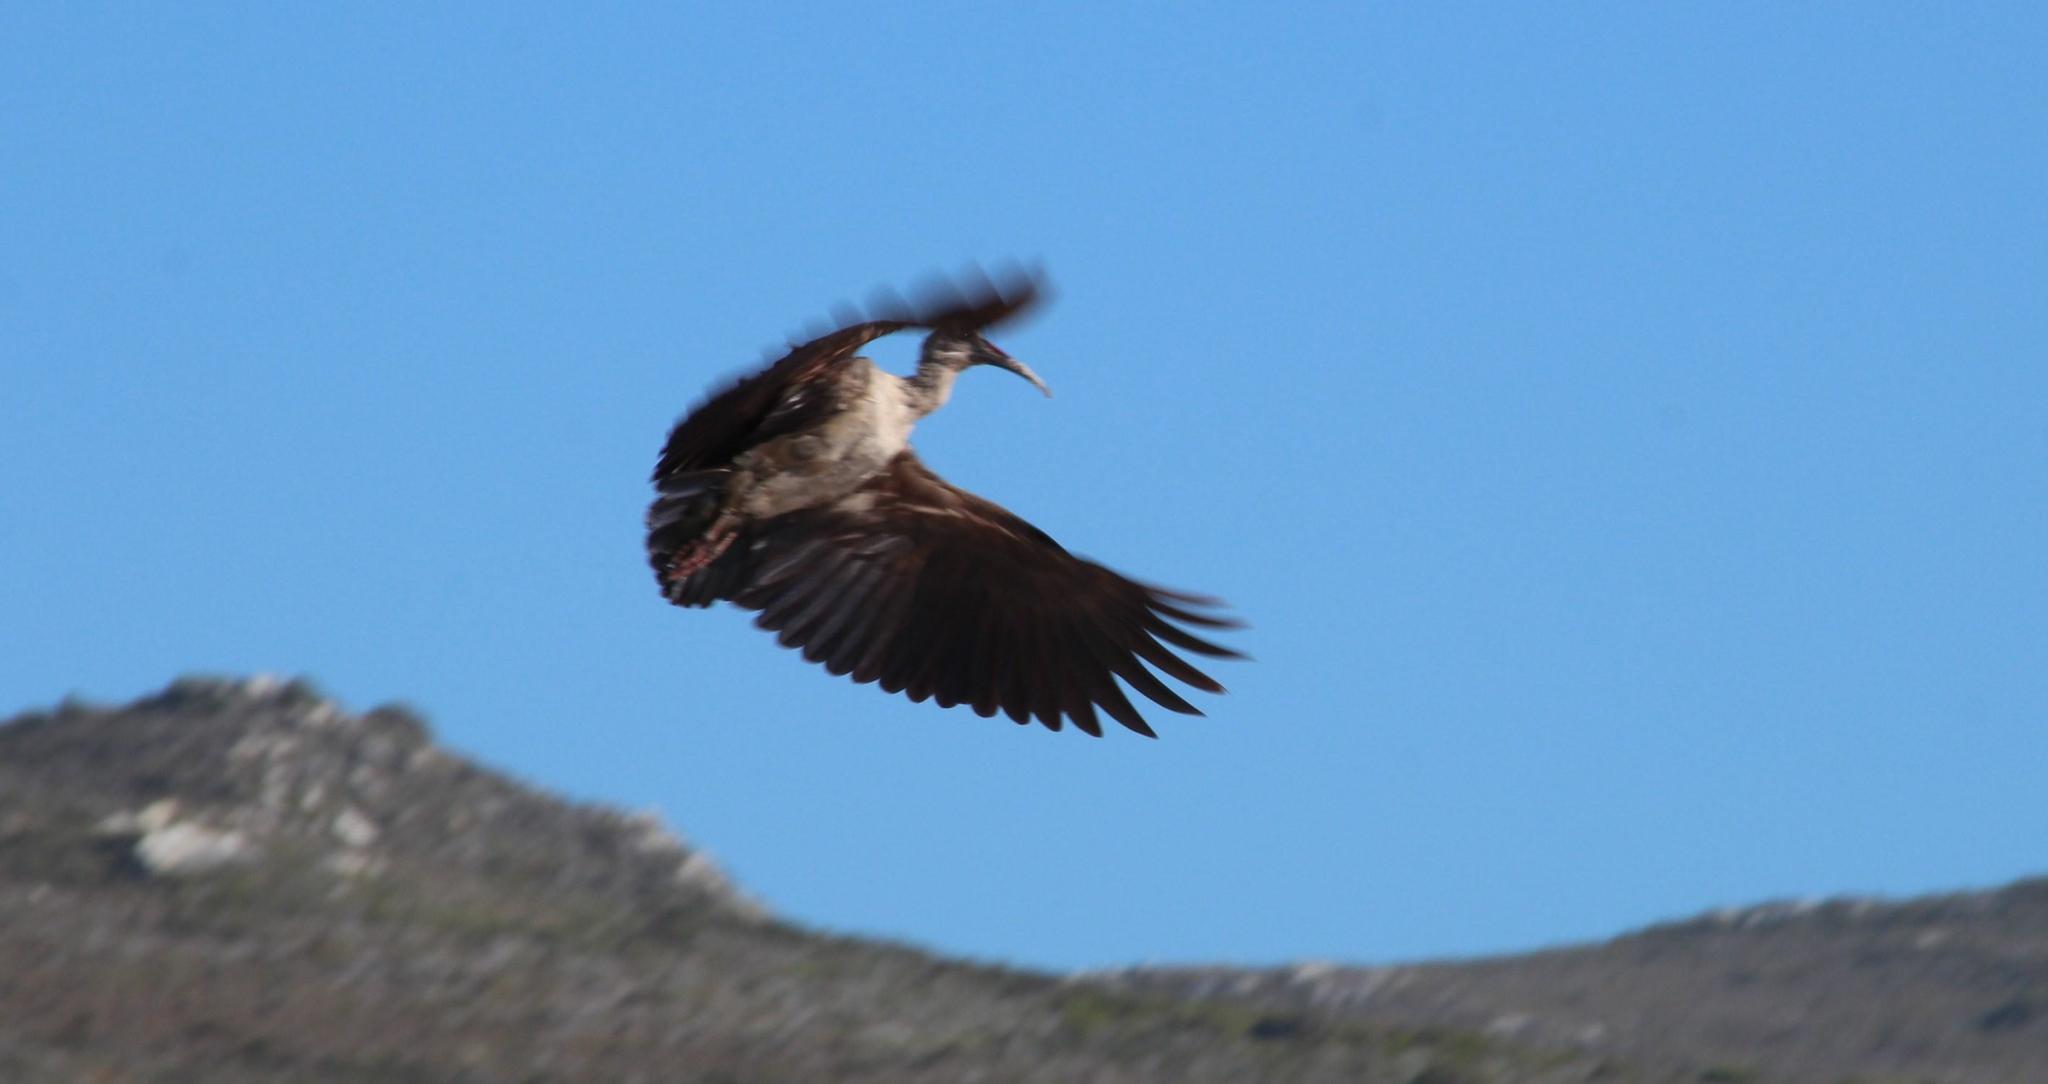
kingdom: Animalia
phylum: Chordata
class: Aves
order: Pelecaniformes
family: Threskiornithidae
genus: Bostrychia
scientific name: Bostrychia hagedash
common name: Hadada ibis
